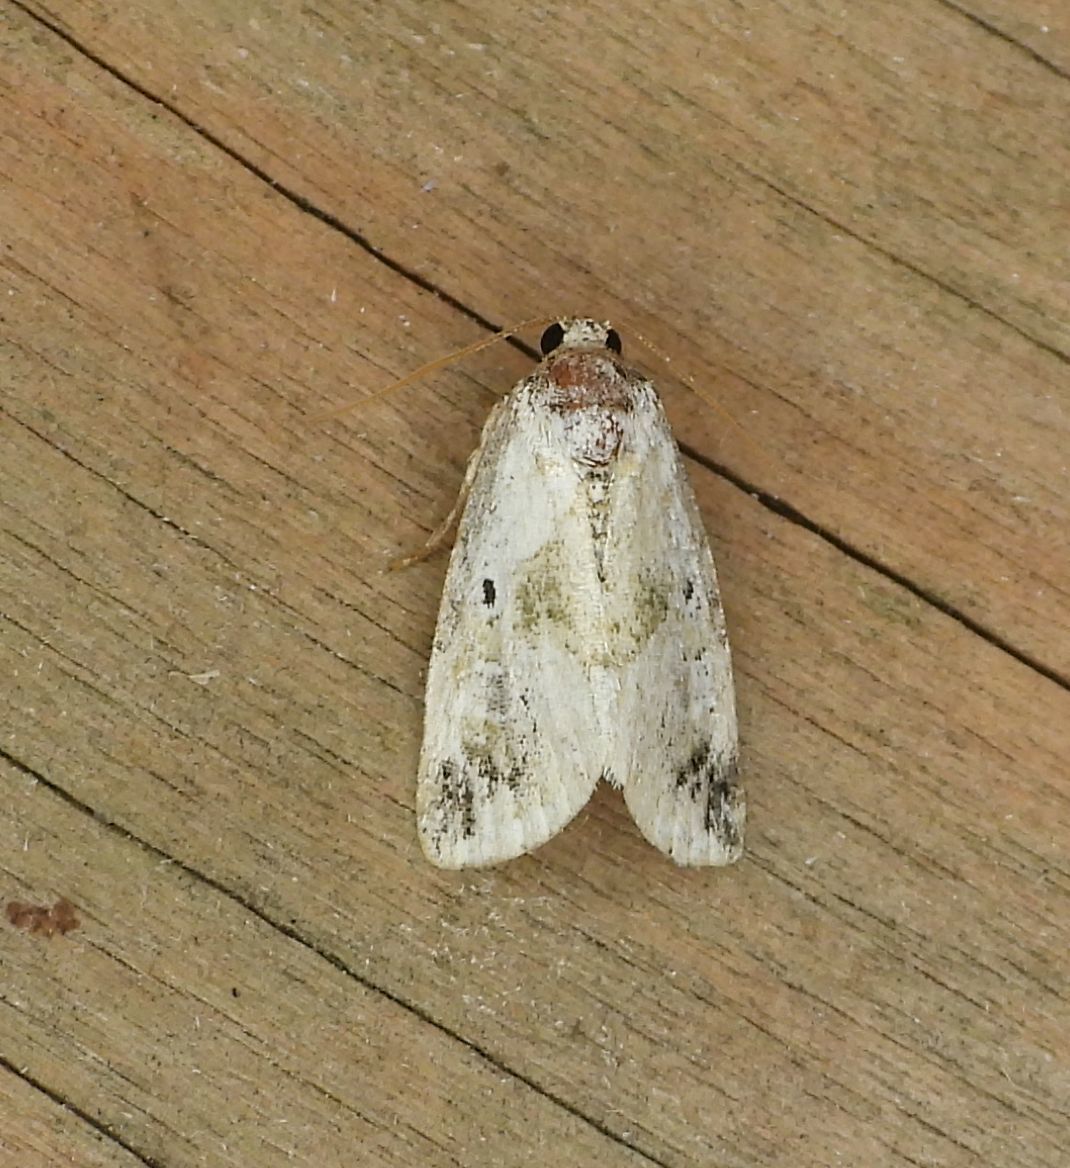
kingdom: Animalia
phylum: Arthropoda
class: Insecta
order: Lepidoptera
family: Noctuidae
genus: Maliattha
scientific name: Maliattha synochitis
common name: Black-dotted glyph
